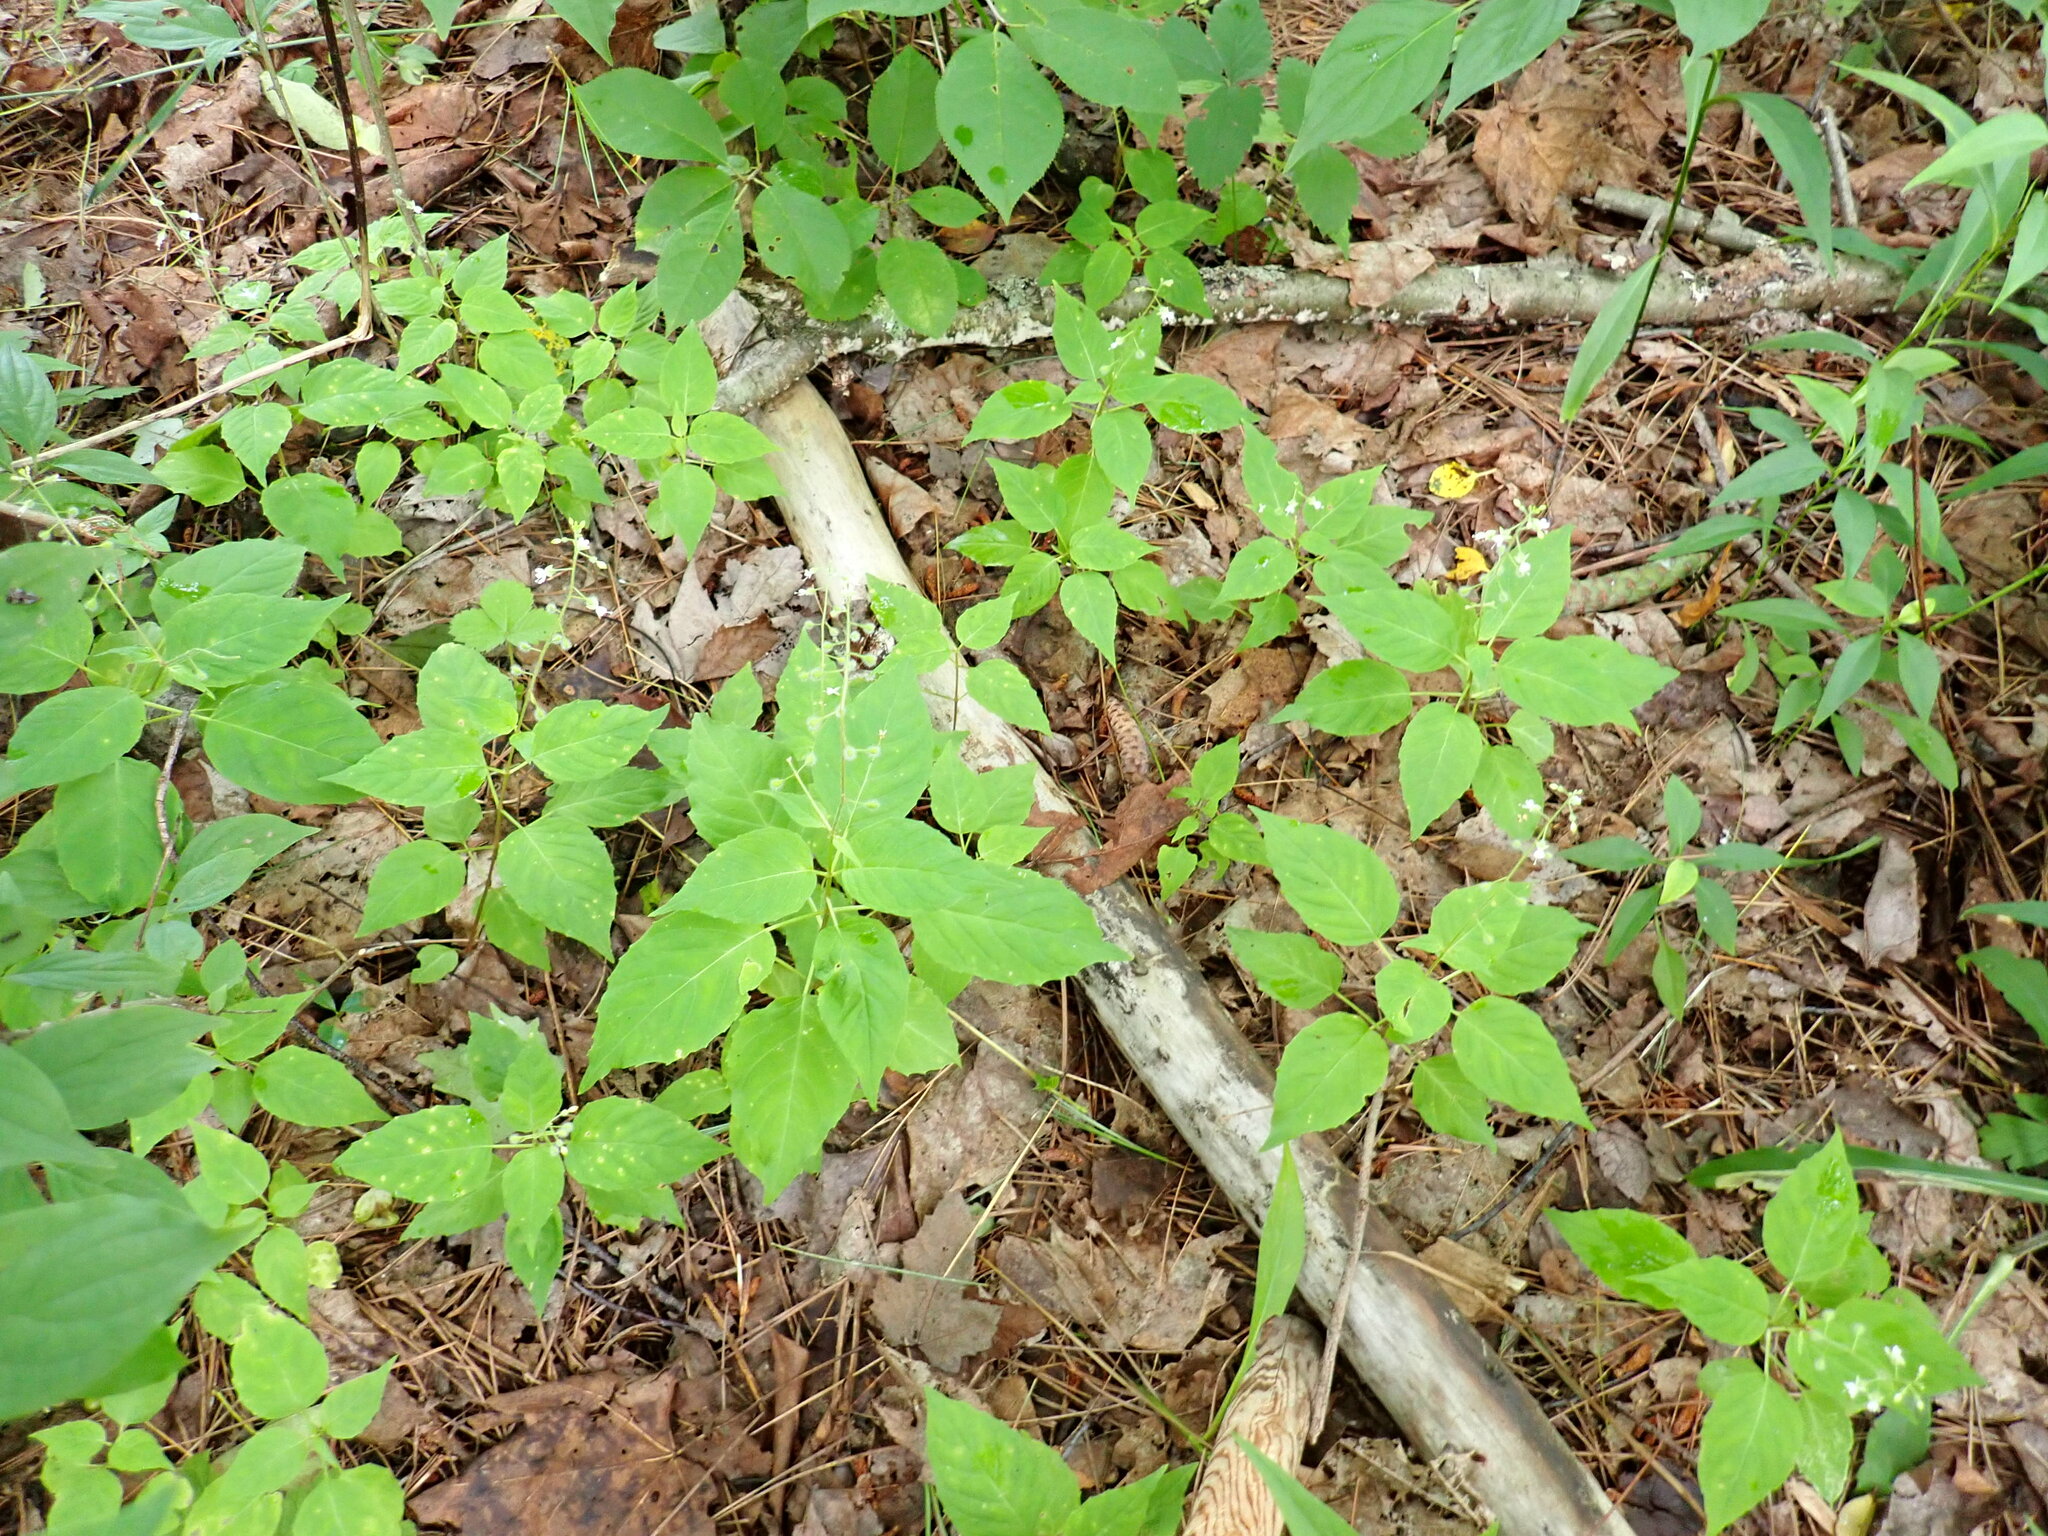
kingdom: Plantae
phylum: Tracheophyta
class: Magnoliopsida
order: Myrtales
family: Onagraceae
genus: Circaea
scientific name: Circaea canadensis
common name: Broad-leaved enchanter's nightshade
